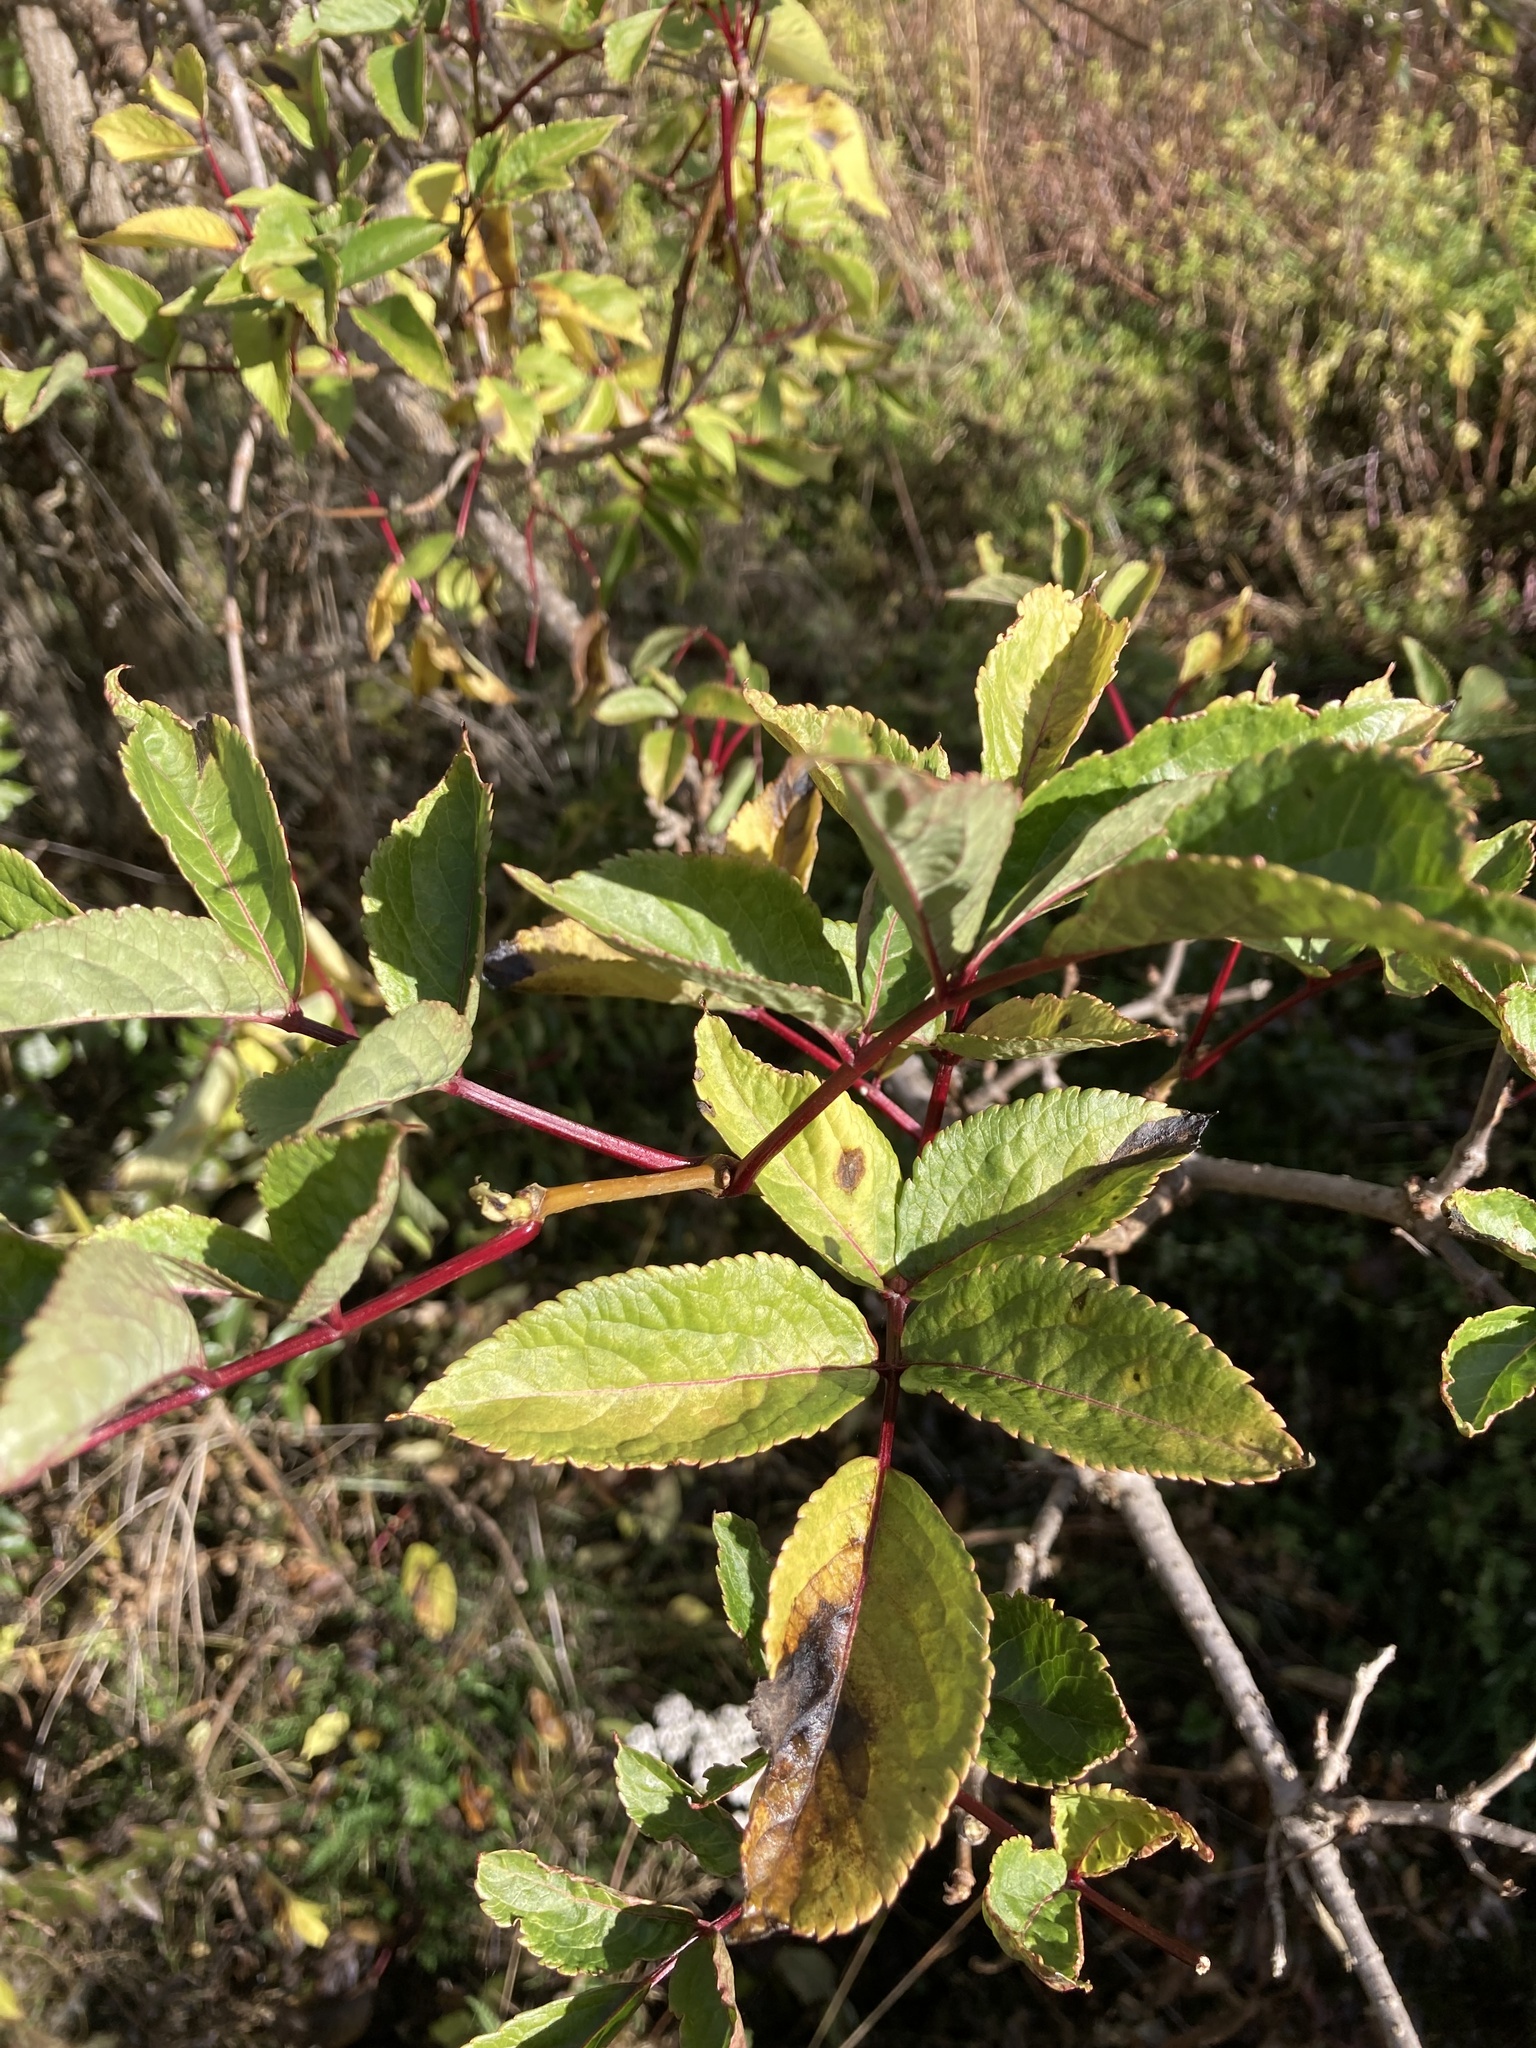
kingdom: Plantae
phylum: Tracheophyta
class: Magnoliopsida
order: Dipsacales
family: Viburnaceae
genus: Sambucus
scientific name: Sambucus nigra
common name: Elder
